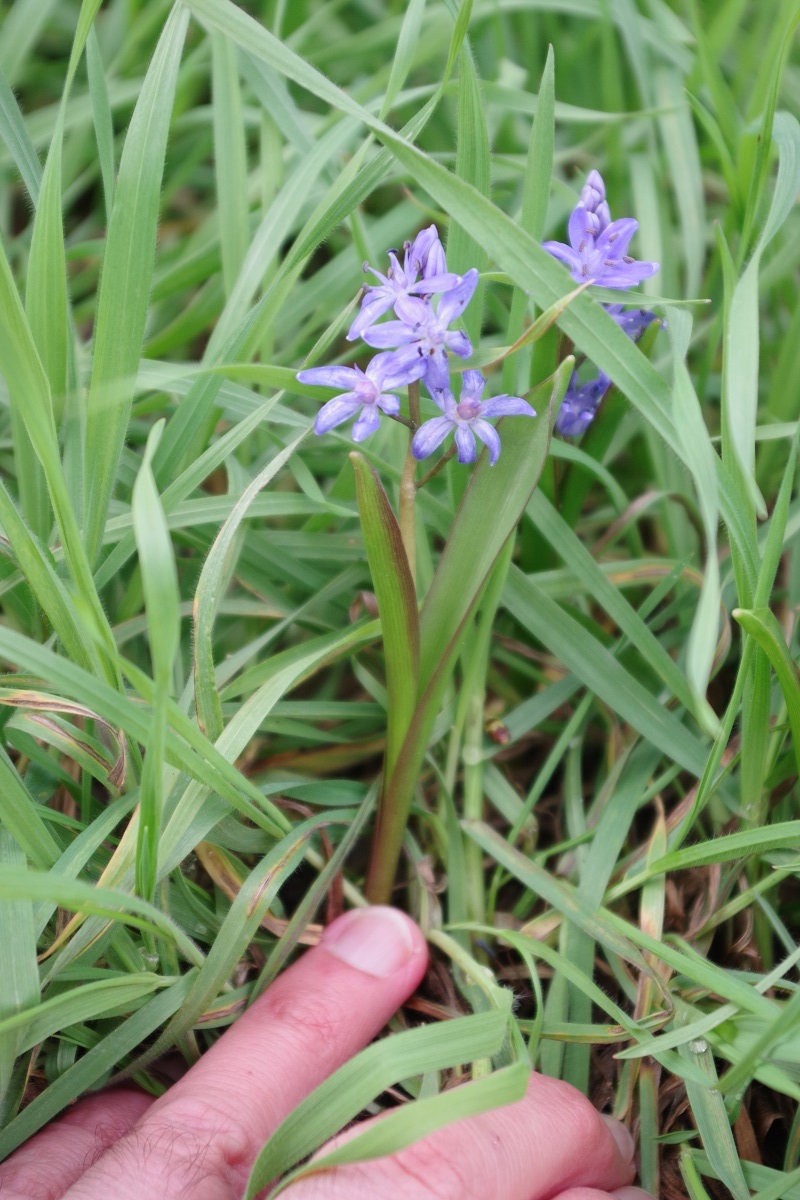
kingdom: Plantae
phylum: Tracheophyta
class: Liliopsida
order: Asparagales
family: Asparagaceae
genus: Scilla
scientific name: Scilla bifolia
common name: Alpine squill
